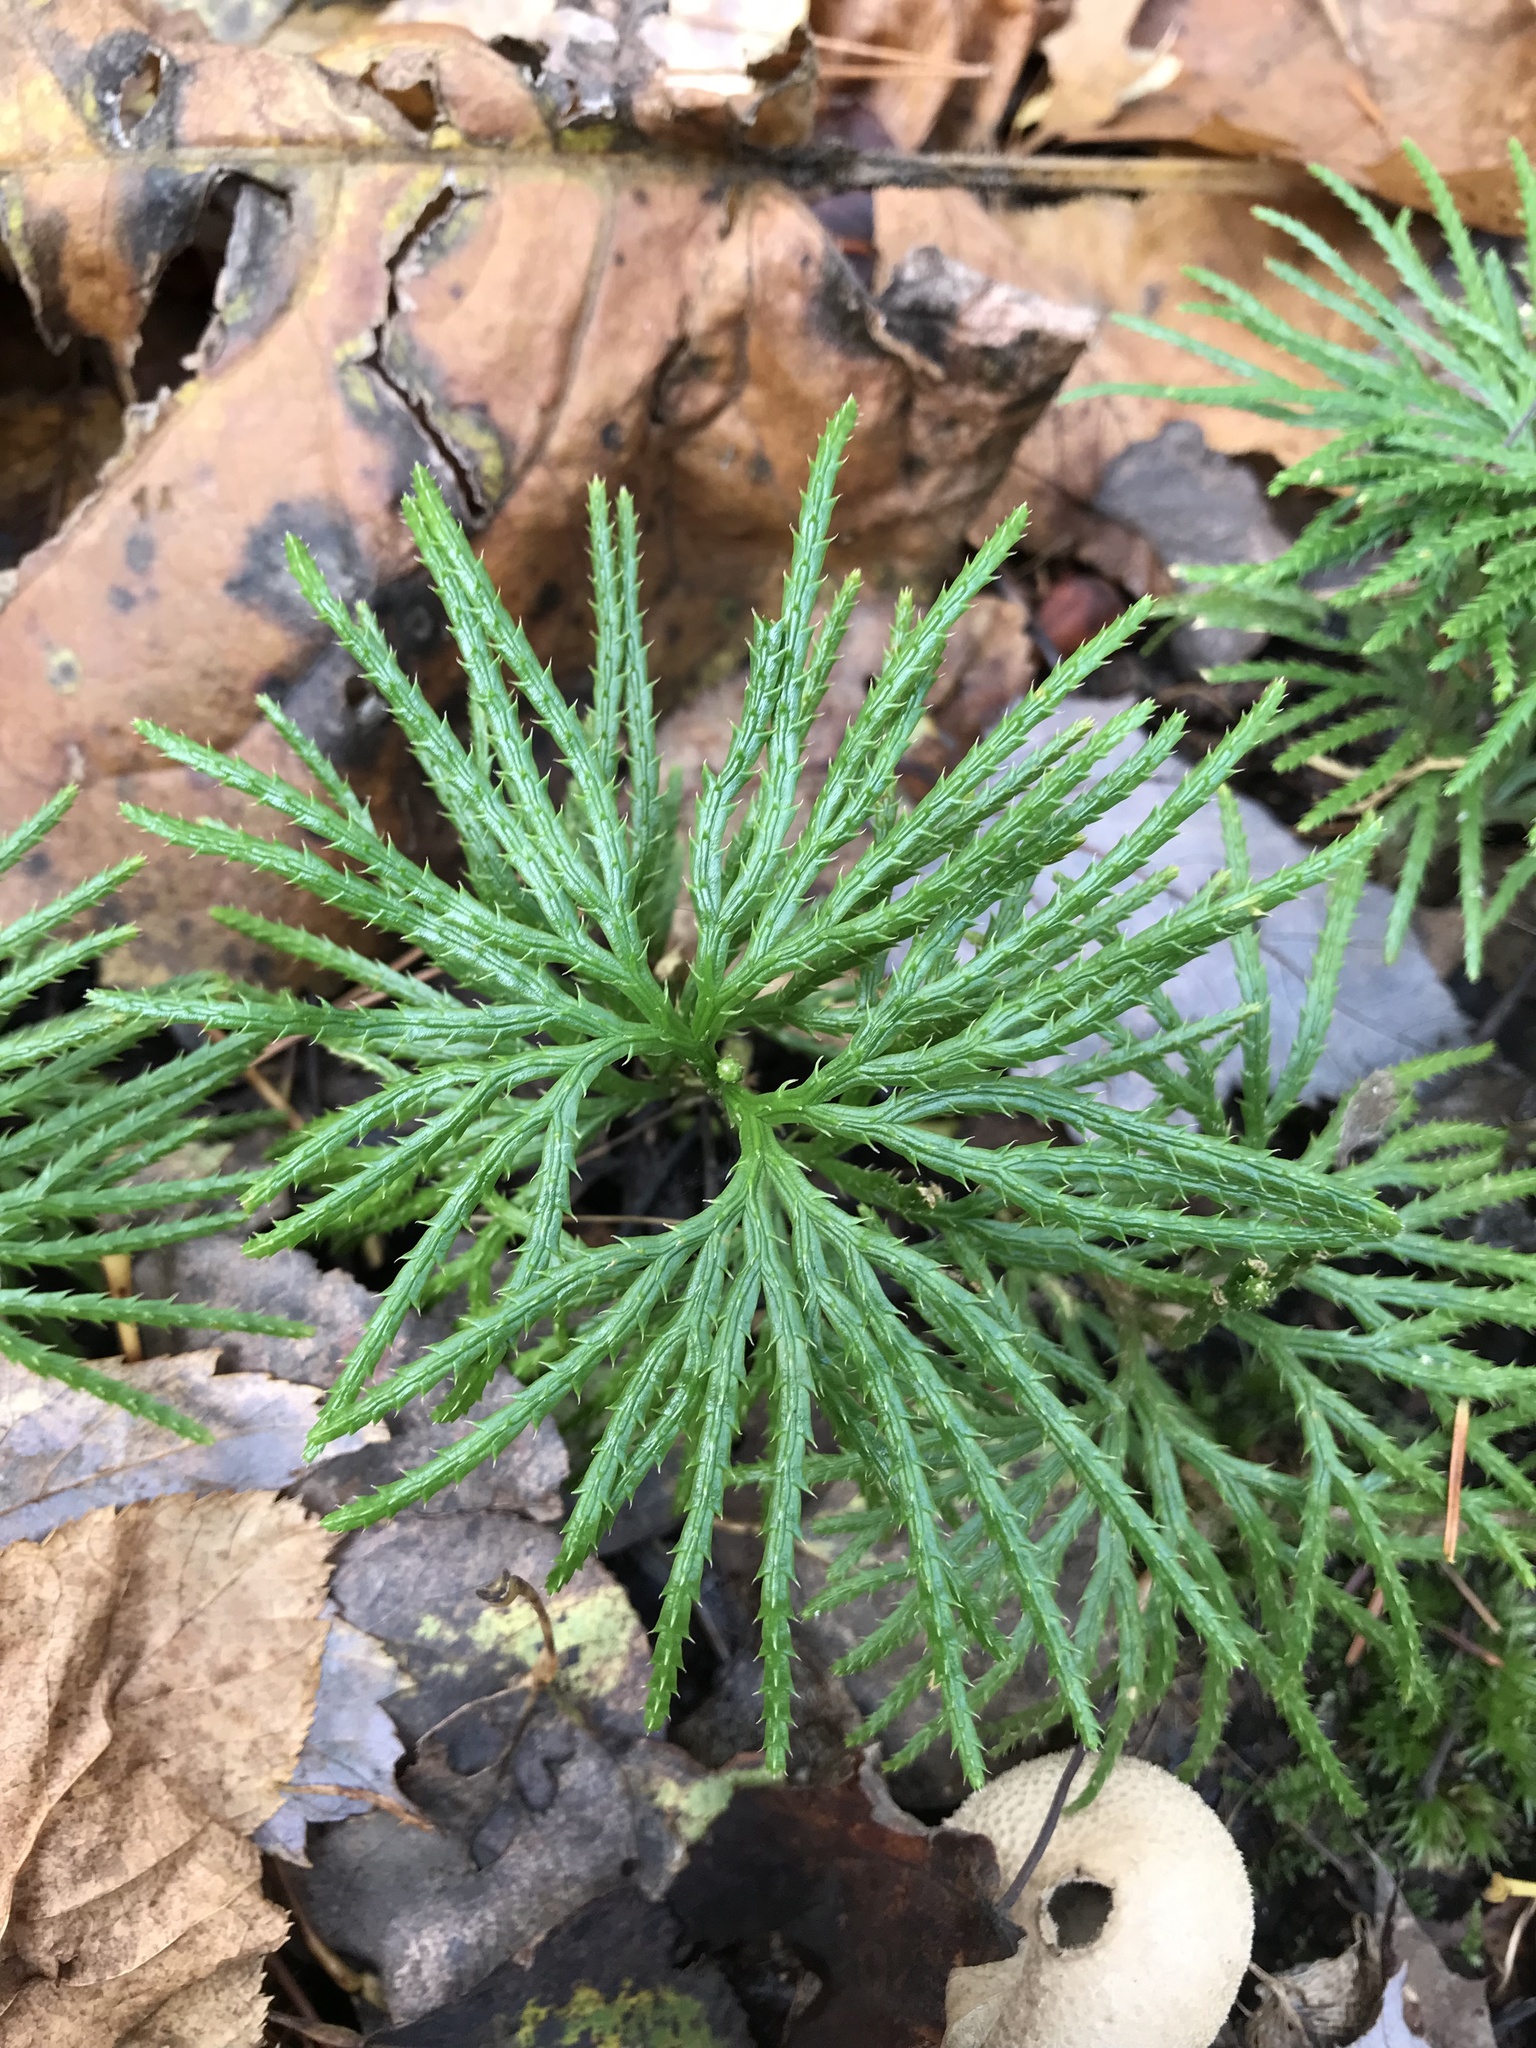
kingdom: Plantae
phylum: Tracheophyta
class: Lycopodiopsida
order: Lycopodiales
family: Lycopodiaceae
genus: Diphasiastrum
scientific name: Diphasiastrum digitatum
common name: Southern running-pine
